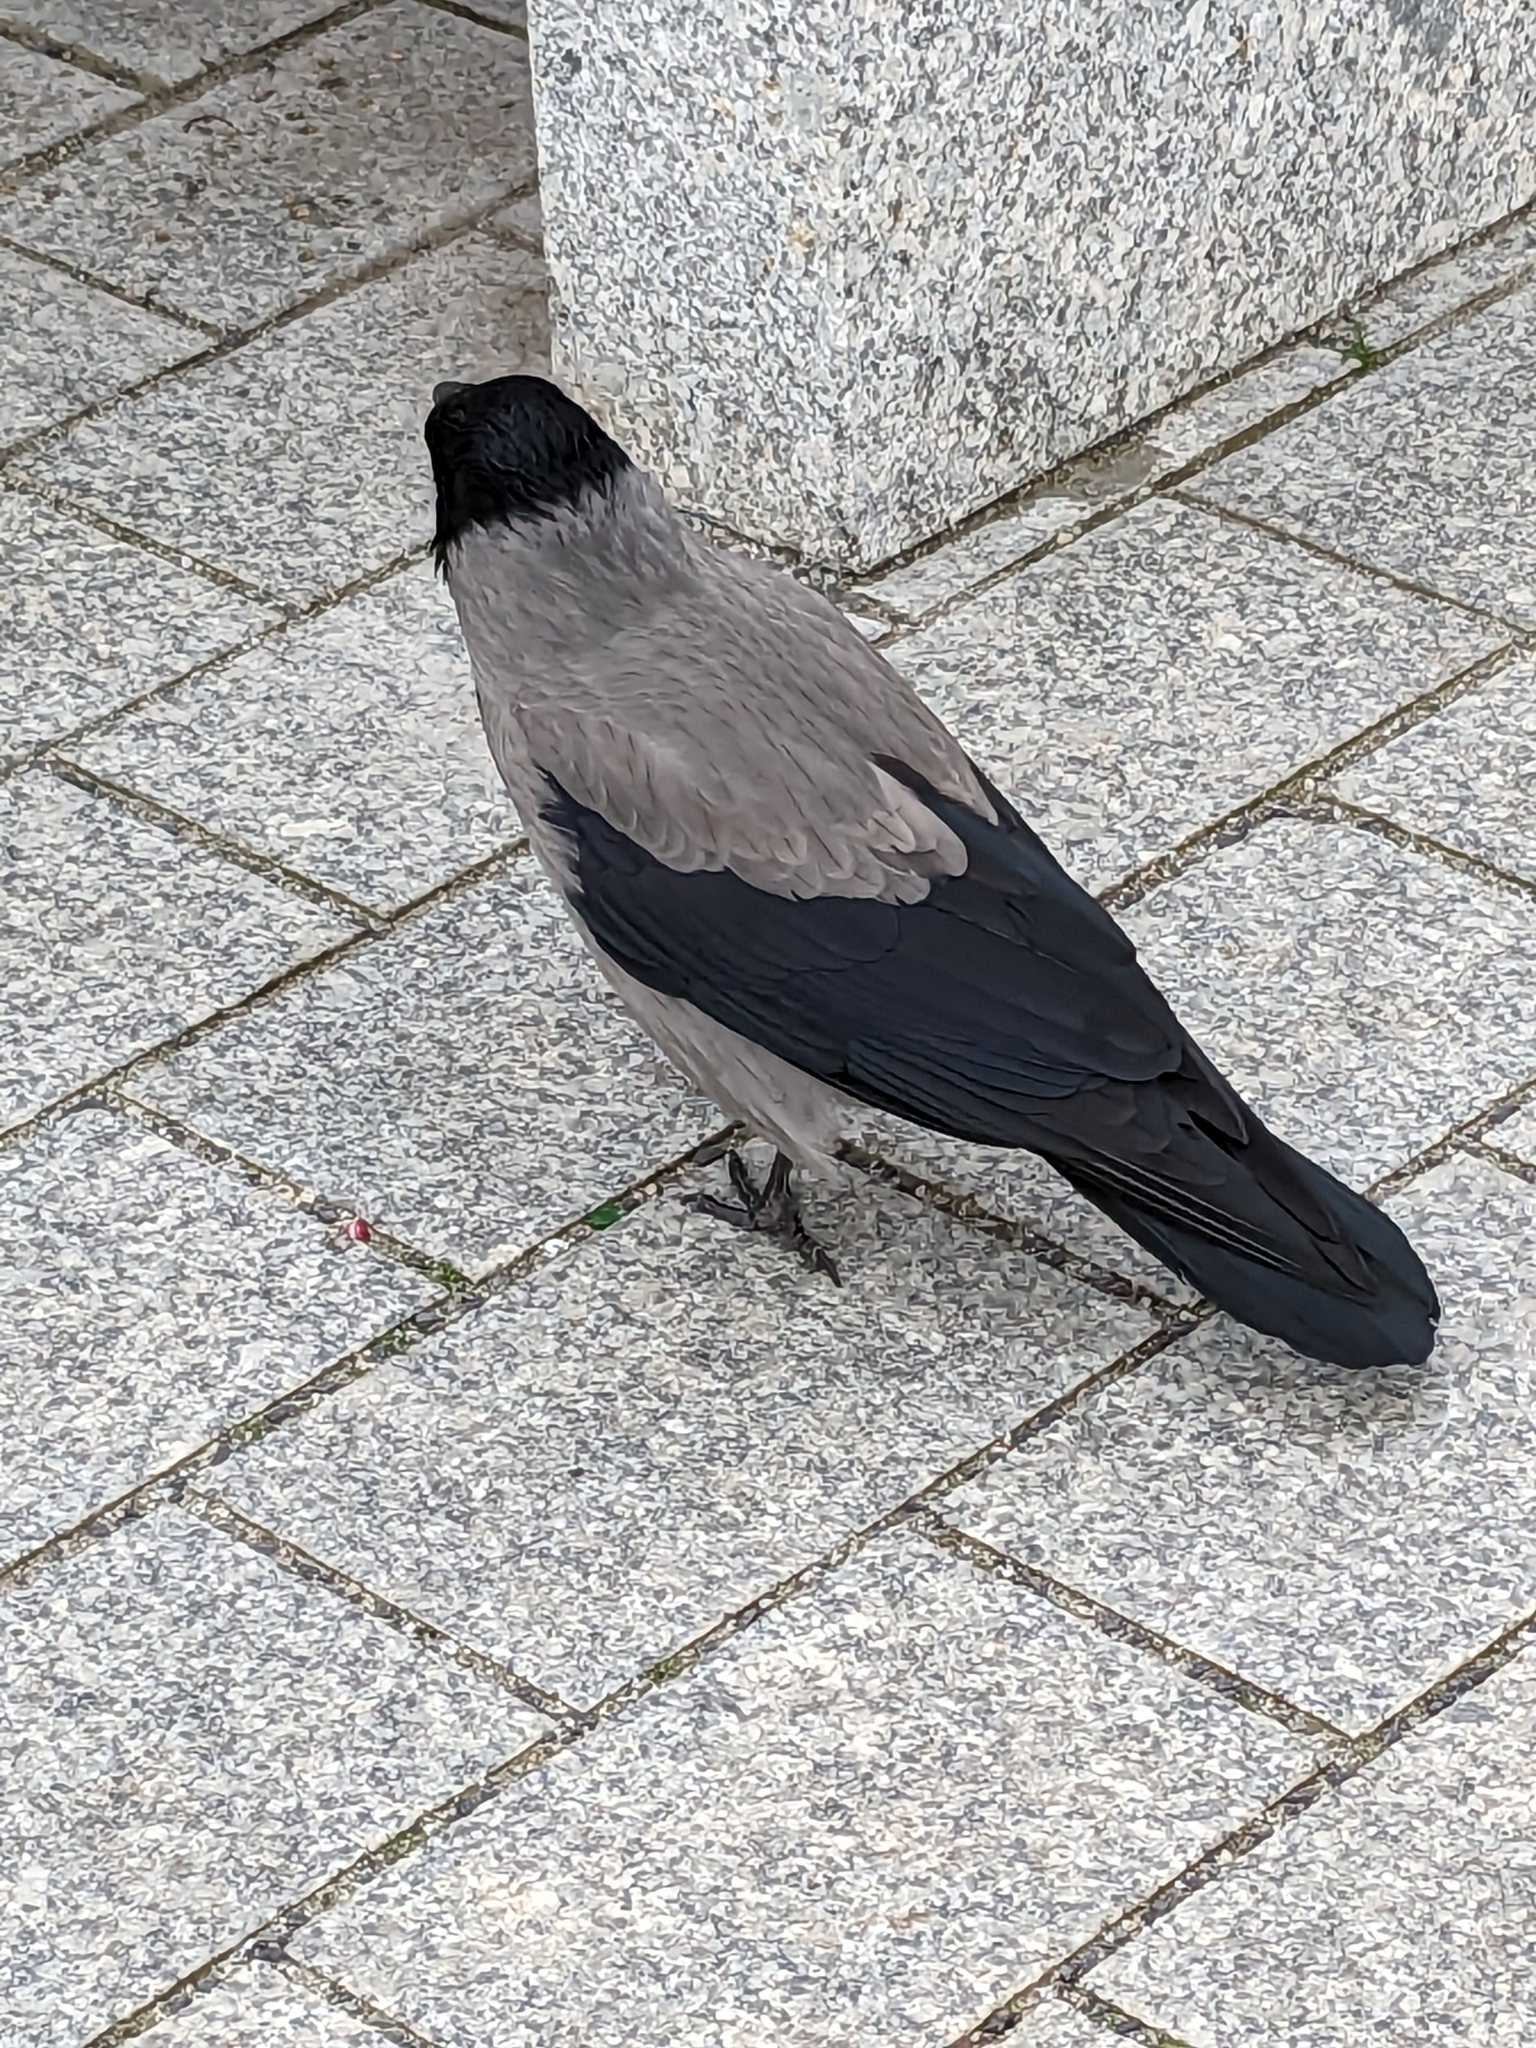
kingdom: Animalia
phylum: Chordata
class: Aves
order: Passeriformes
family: Corvidae
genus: Corvus
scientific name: Corvus cornix
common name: Hooded crow
